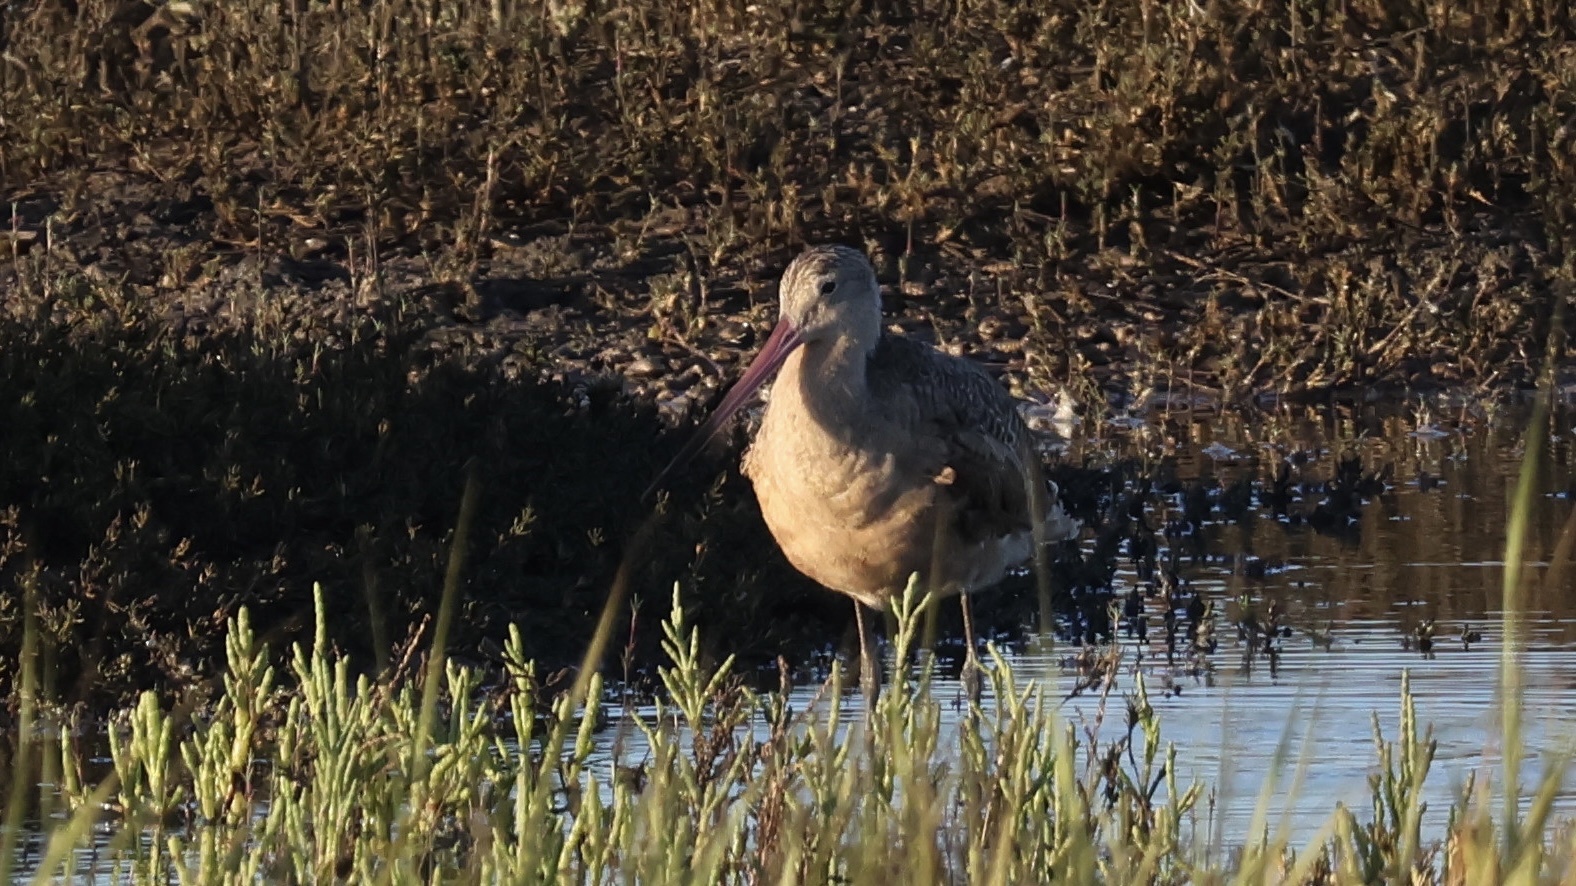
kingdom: Animalia
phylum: Chordata
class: Aves
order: Charadriiformes
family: Scolopacidae
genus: Limosa
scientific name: Limosa fedoa
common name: Marbled godwit
